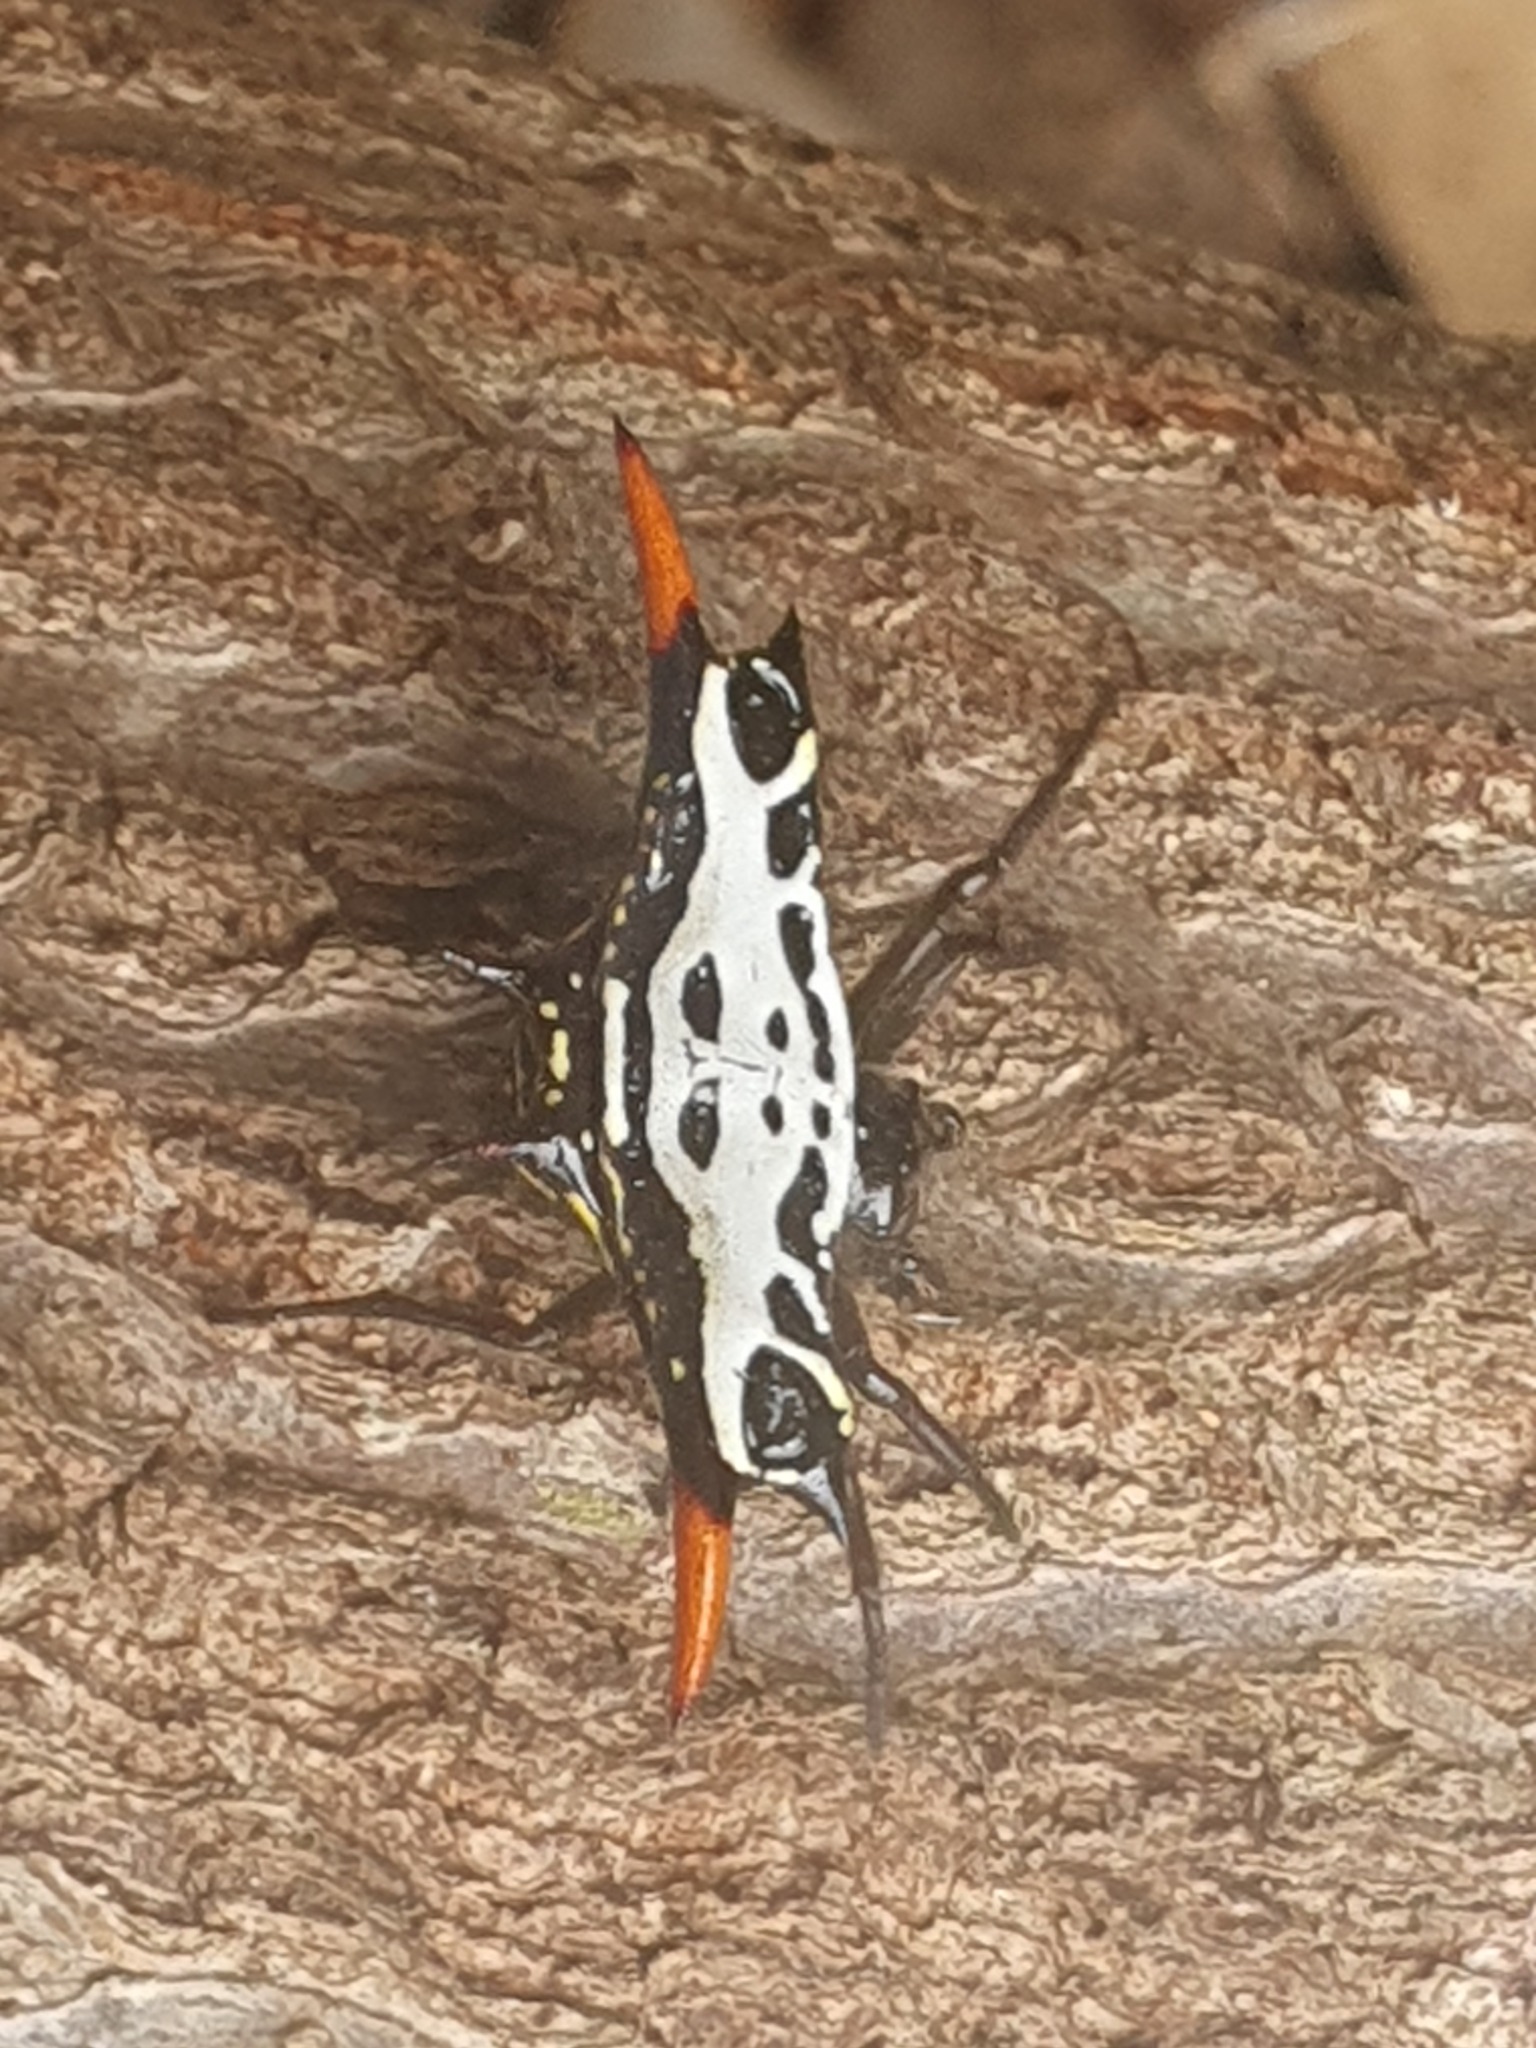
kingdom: Animalia
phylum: Arthropoda
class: Arachnida
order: Araneae
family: Araneidae
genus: Gasteracantha
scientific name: Gasteracantha westringi
